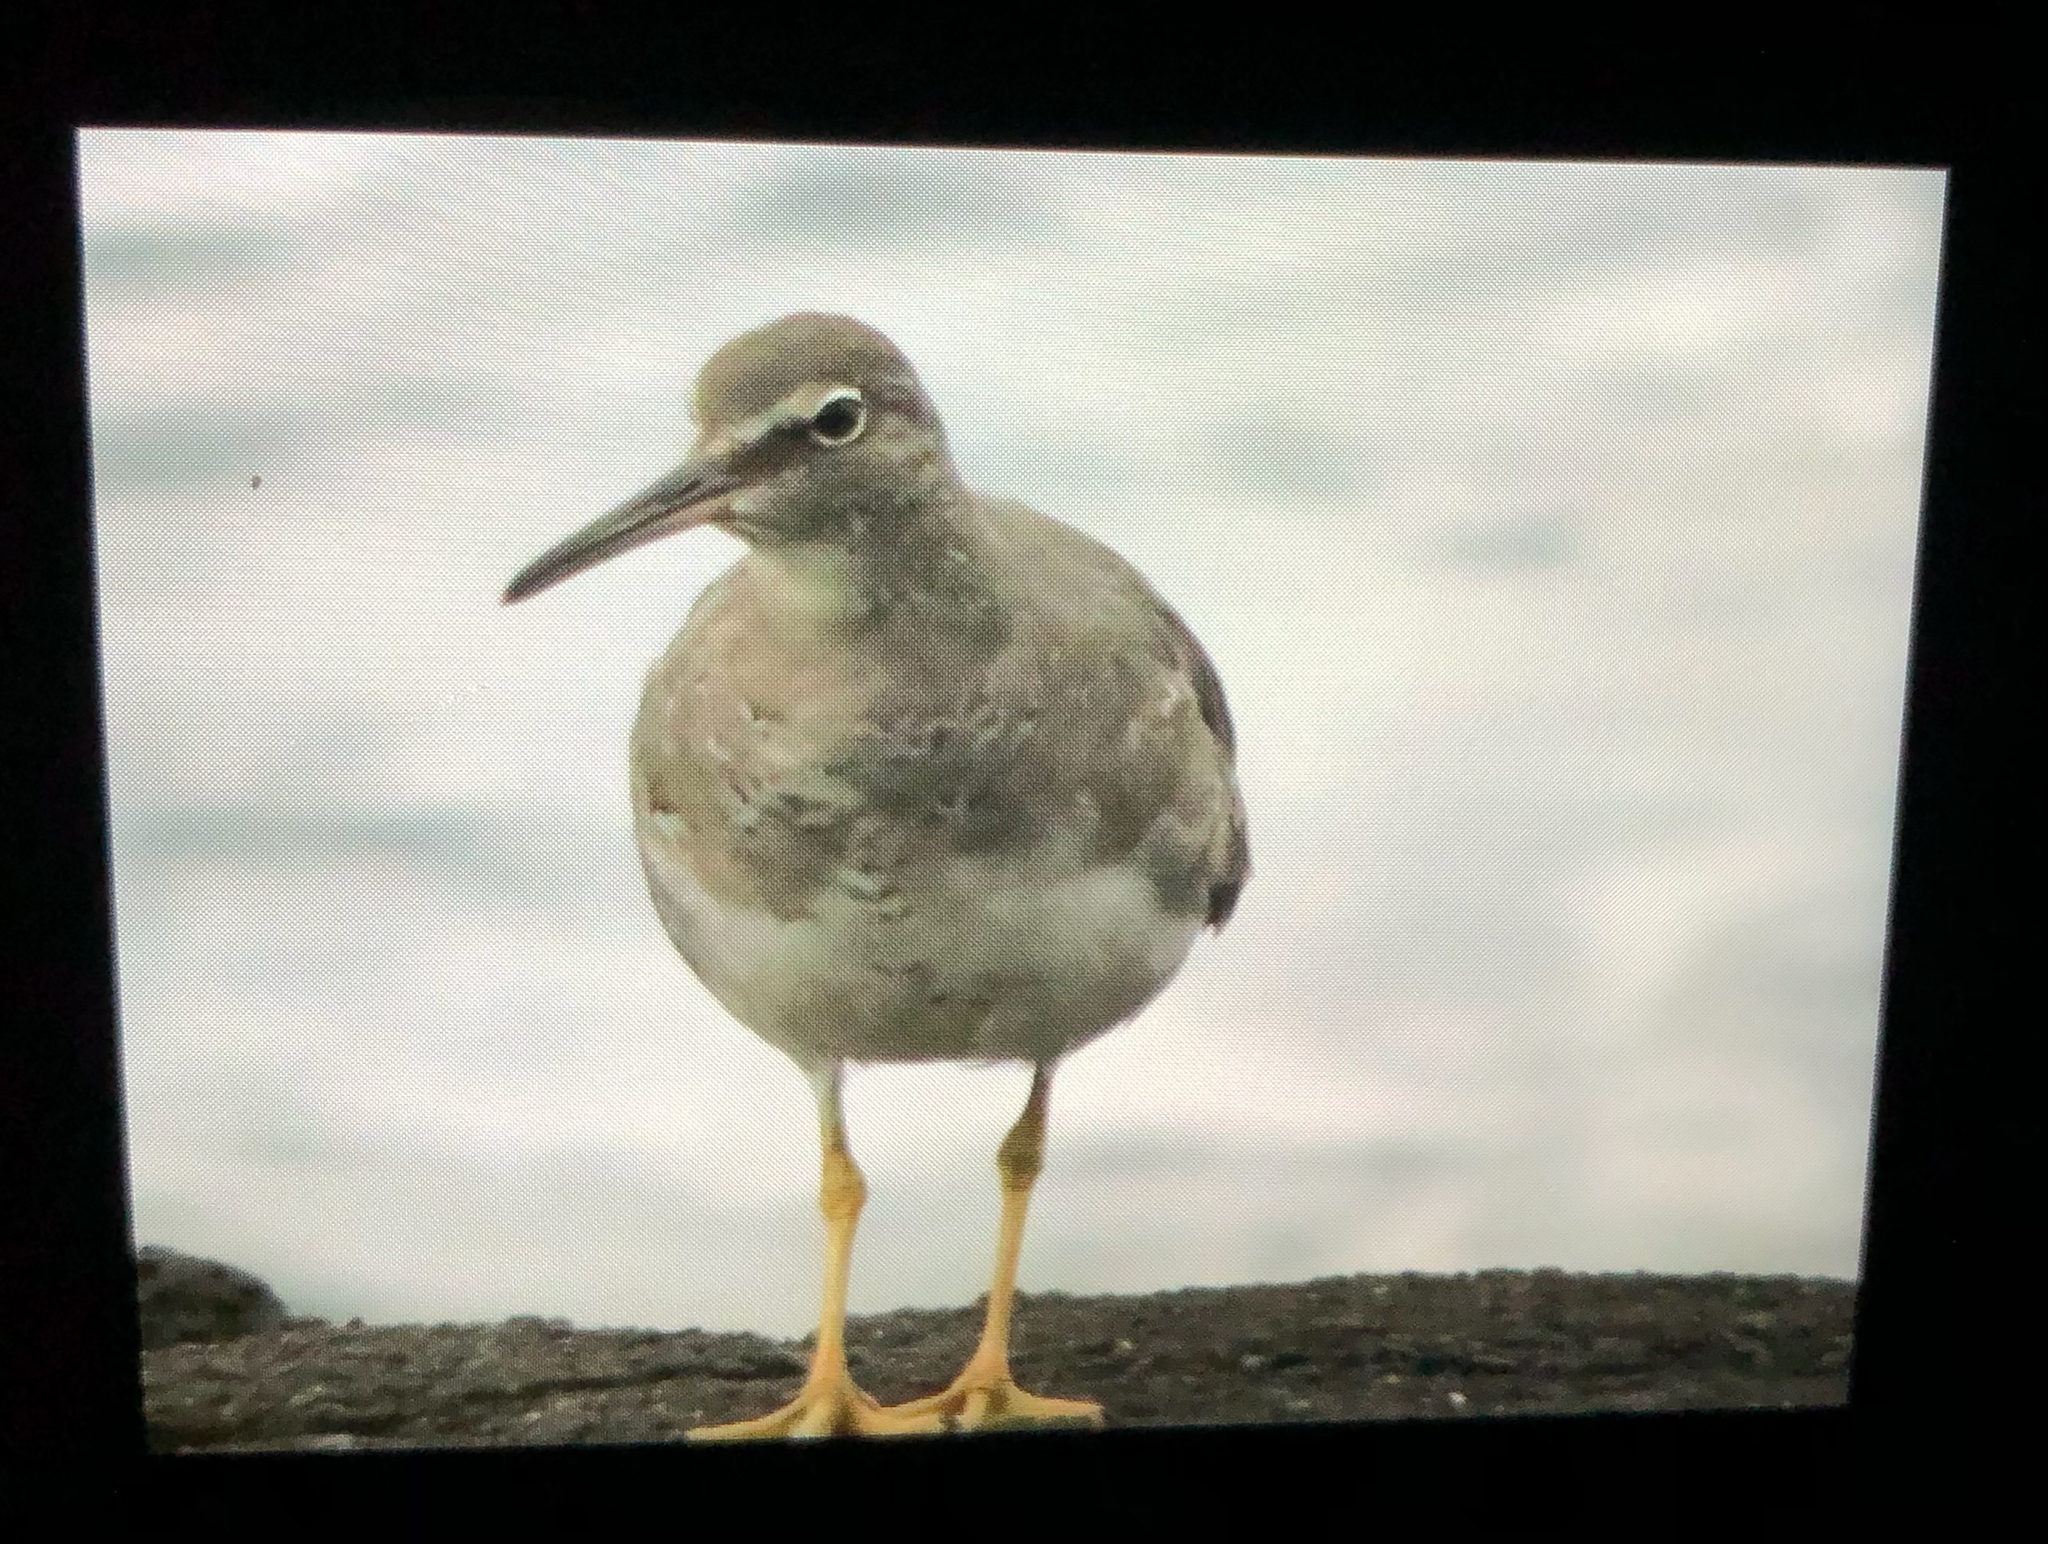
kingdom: Animalia
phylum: Chordata
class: Aves
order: Charadriiformes
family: Scolopacidae
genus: Tringa
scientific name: Tringa incana
